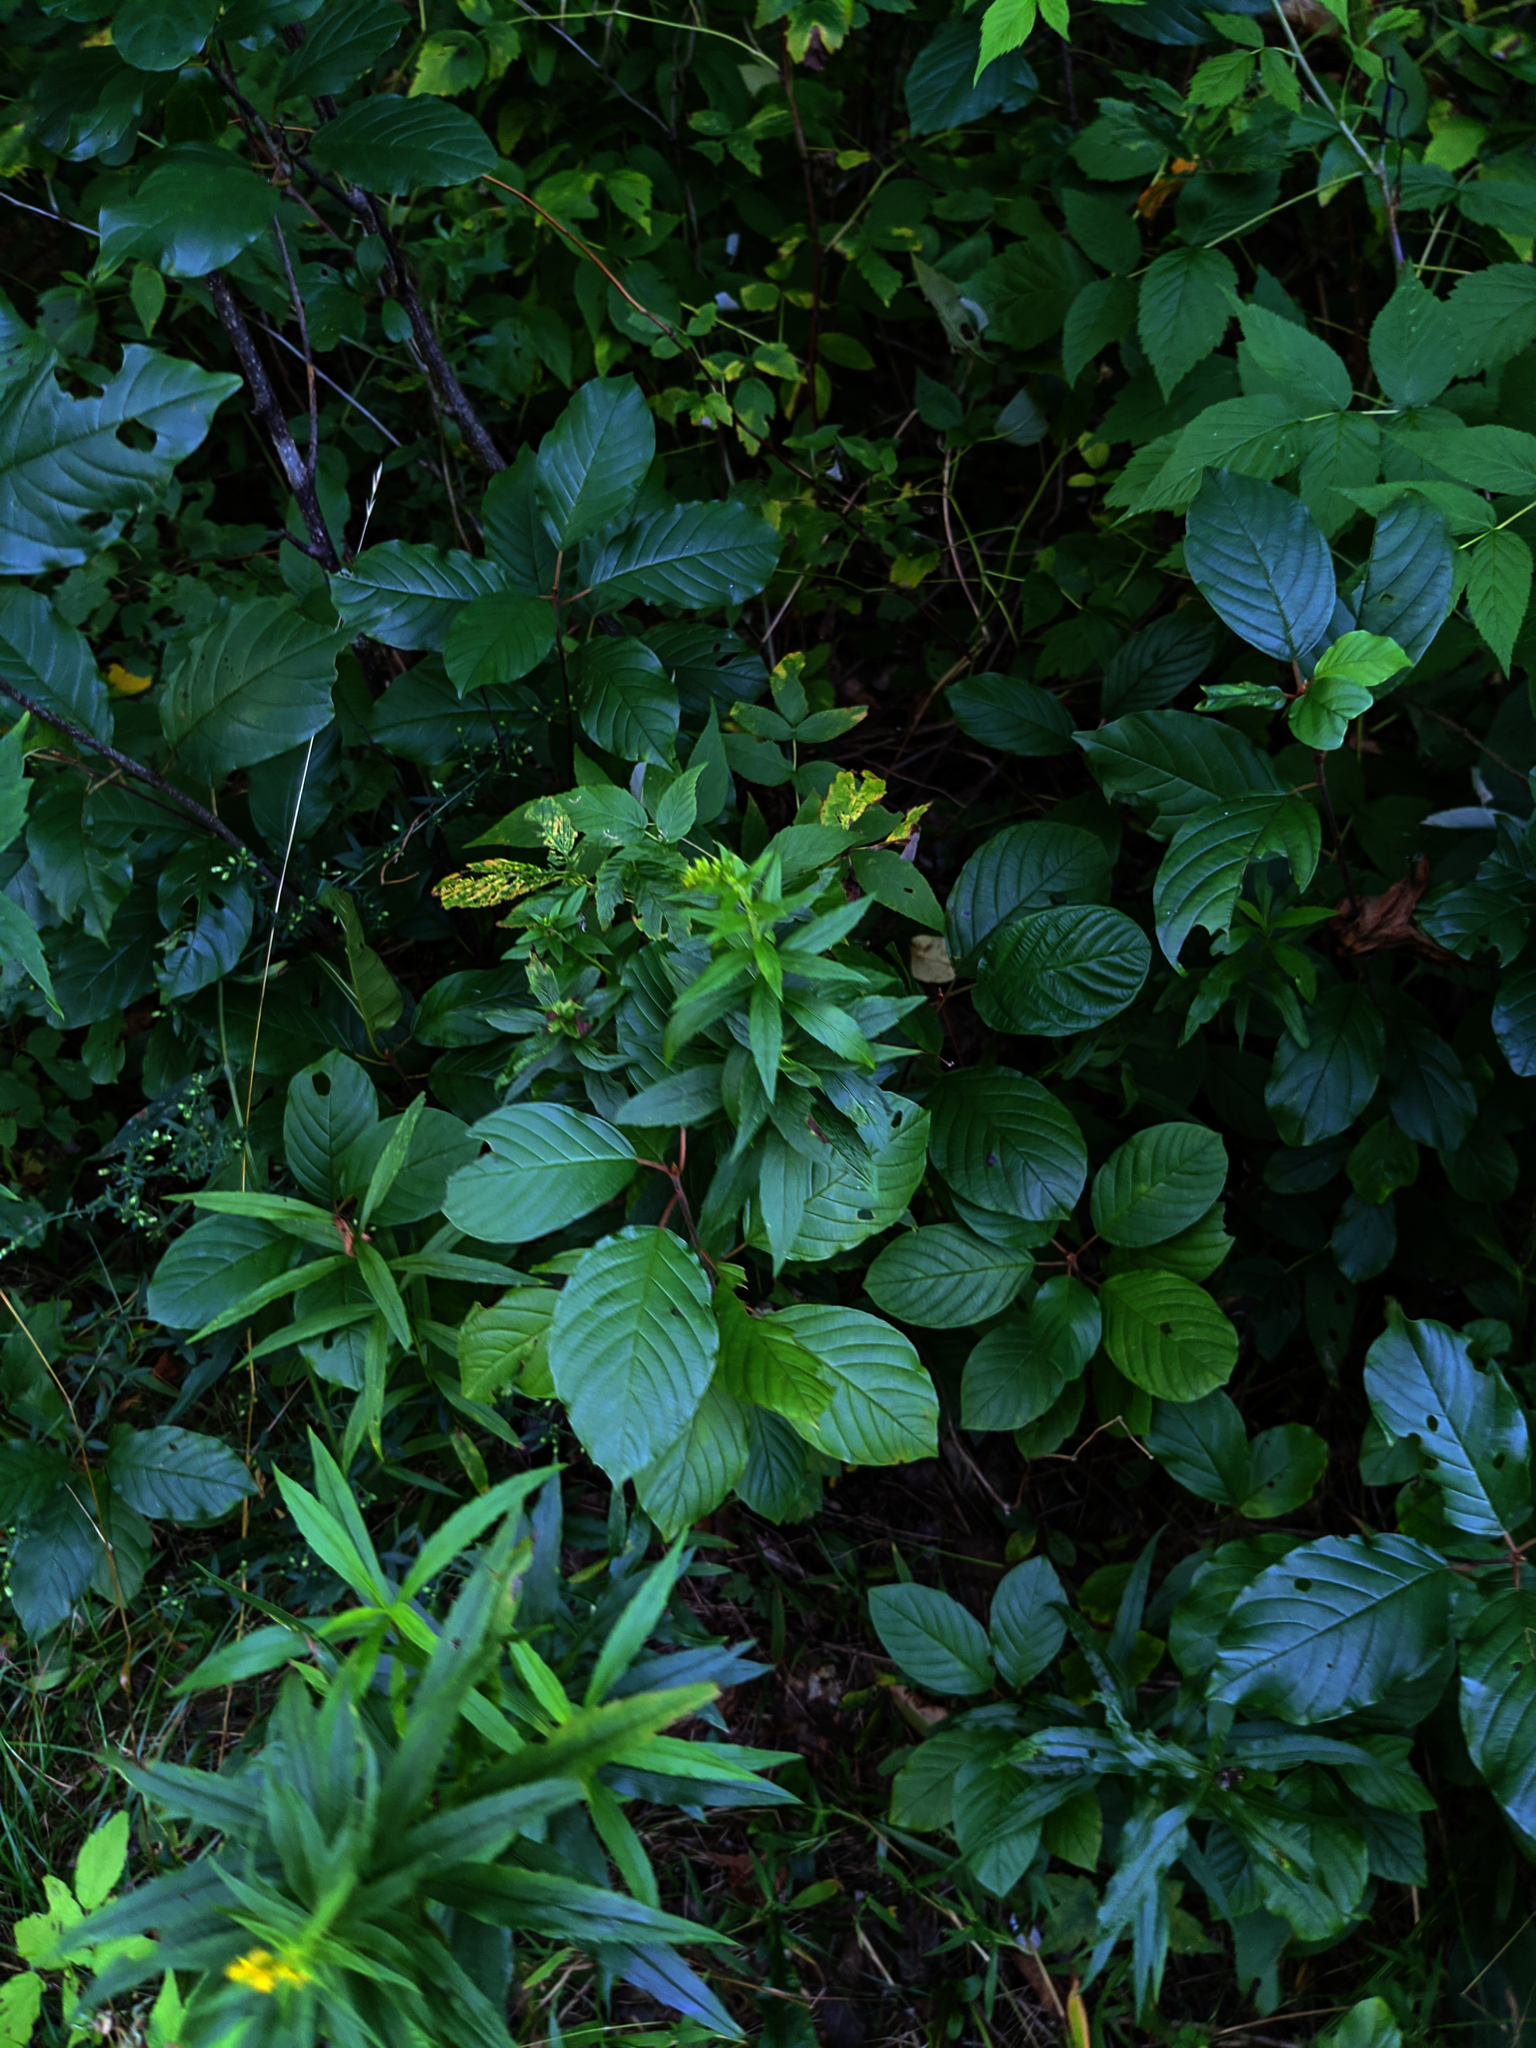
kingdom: Plantae
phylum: Tracheophyta
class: Magnoliopsida
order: Rosales
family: Rhamnaceae
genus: Frangula
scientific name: Frangula alnus
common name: Alder buckthorn
